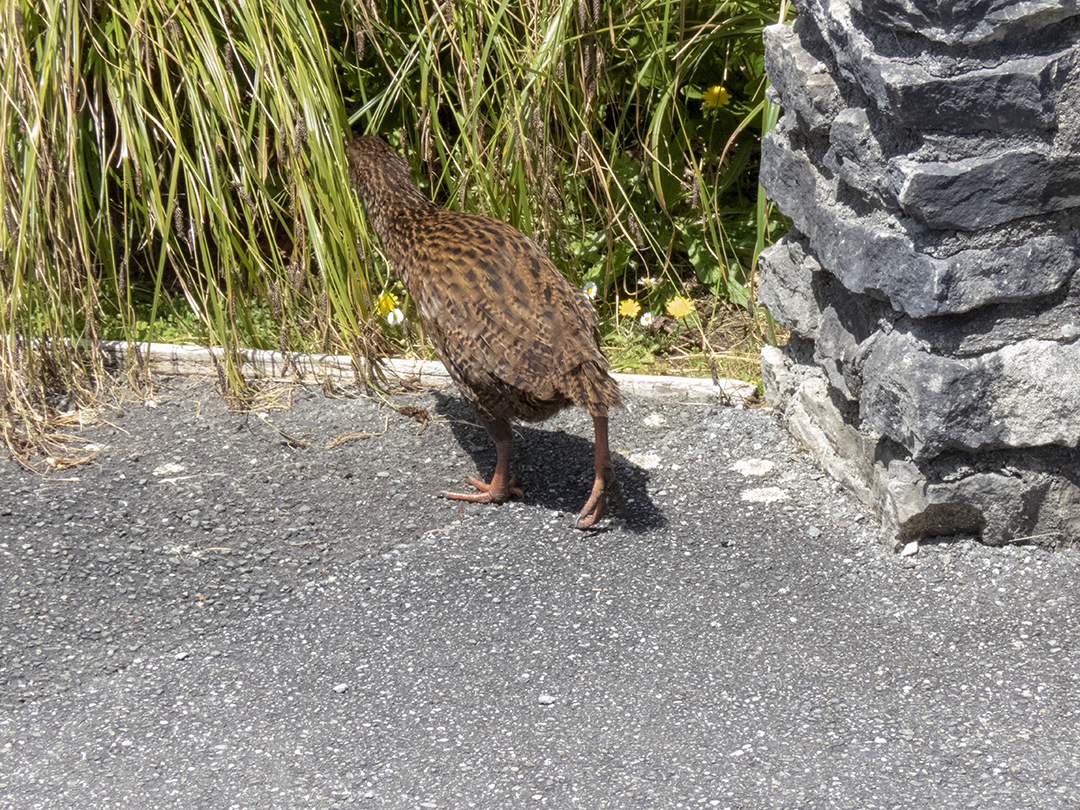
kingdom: Animalia
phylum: Chordata
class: Aves
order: Gruiformes
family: Rallidae
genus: Gallirallus
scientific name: Gallirallus australis
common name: Weka
